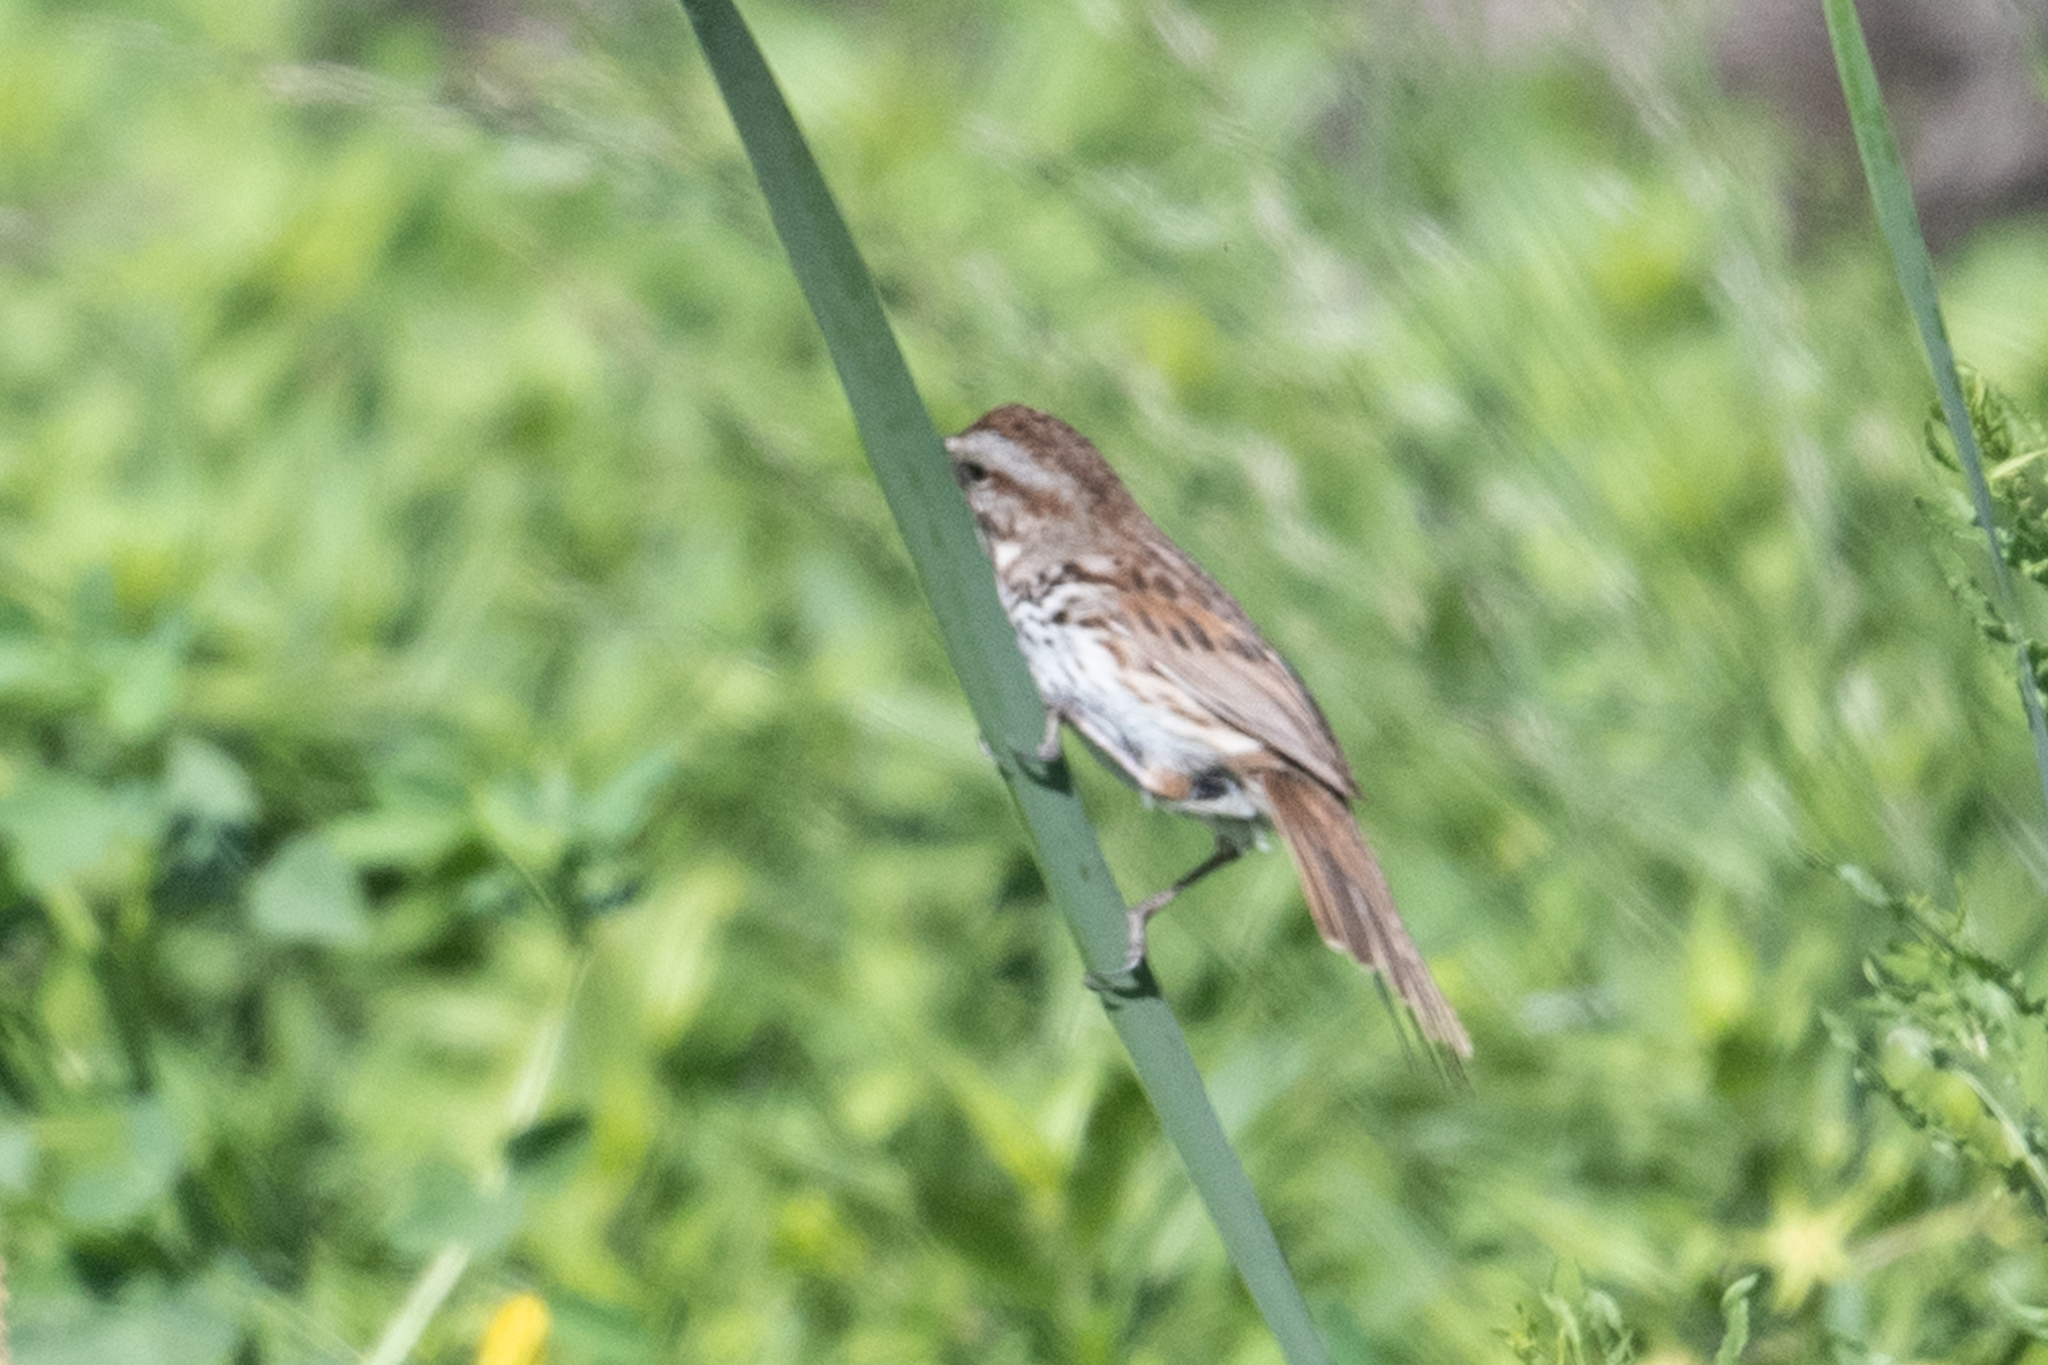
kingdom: Animalia
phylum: Chordata
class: Aves
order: Passeriformes
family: Passerellidae
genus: Melospiza
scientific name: Melospiza melodia
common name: Song sparrow
